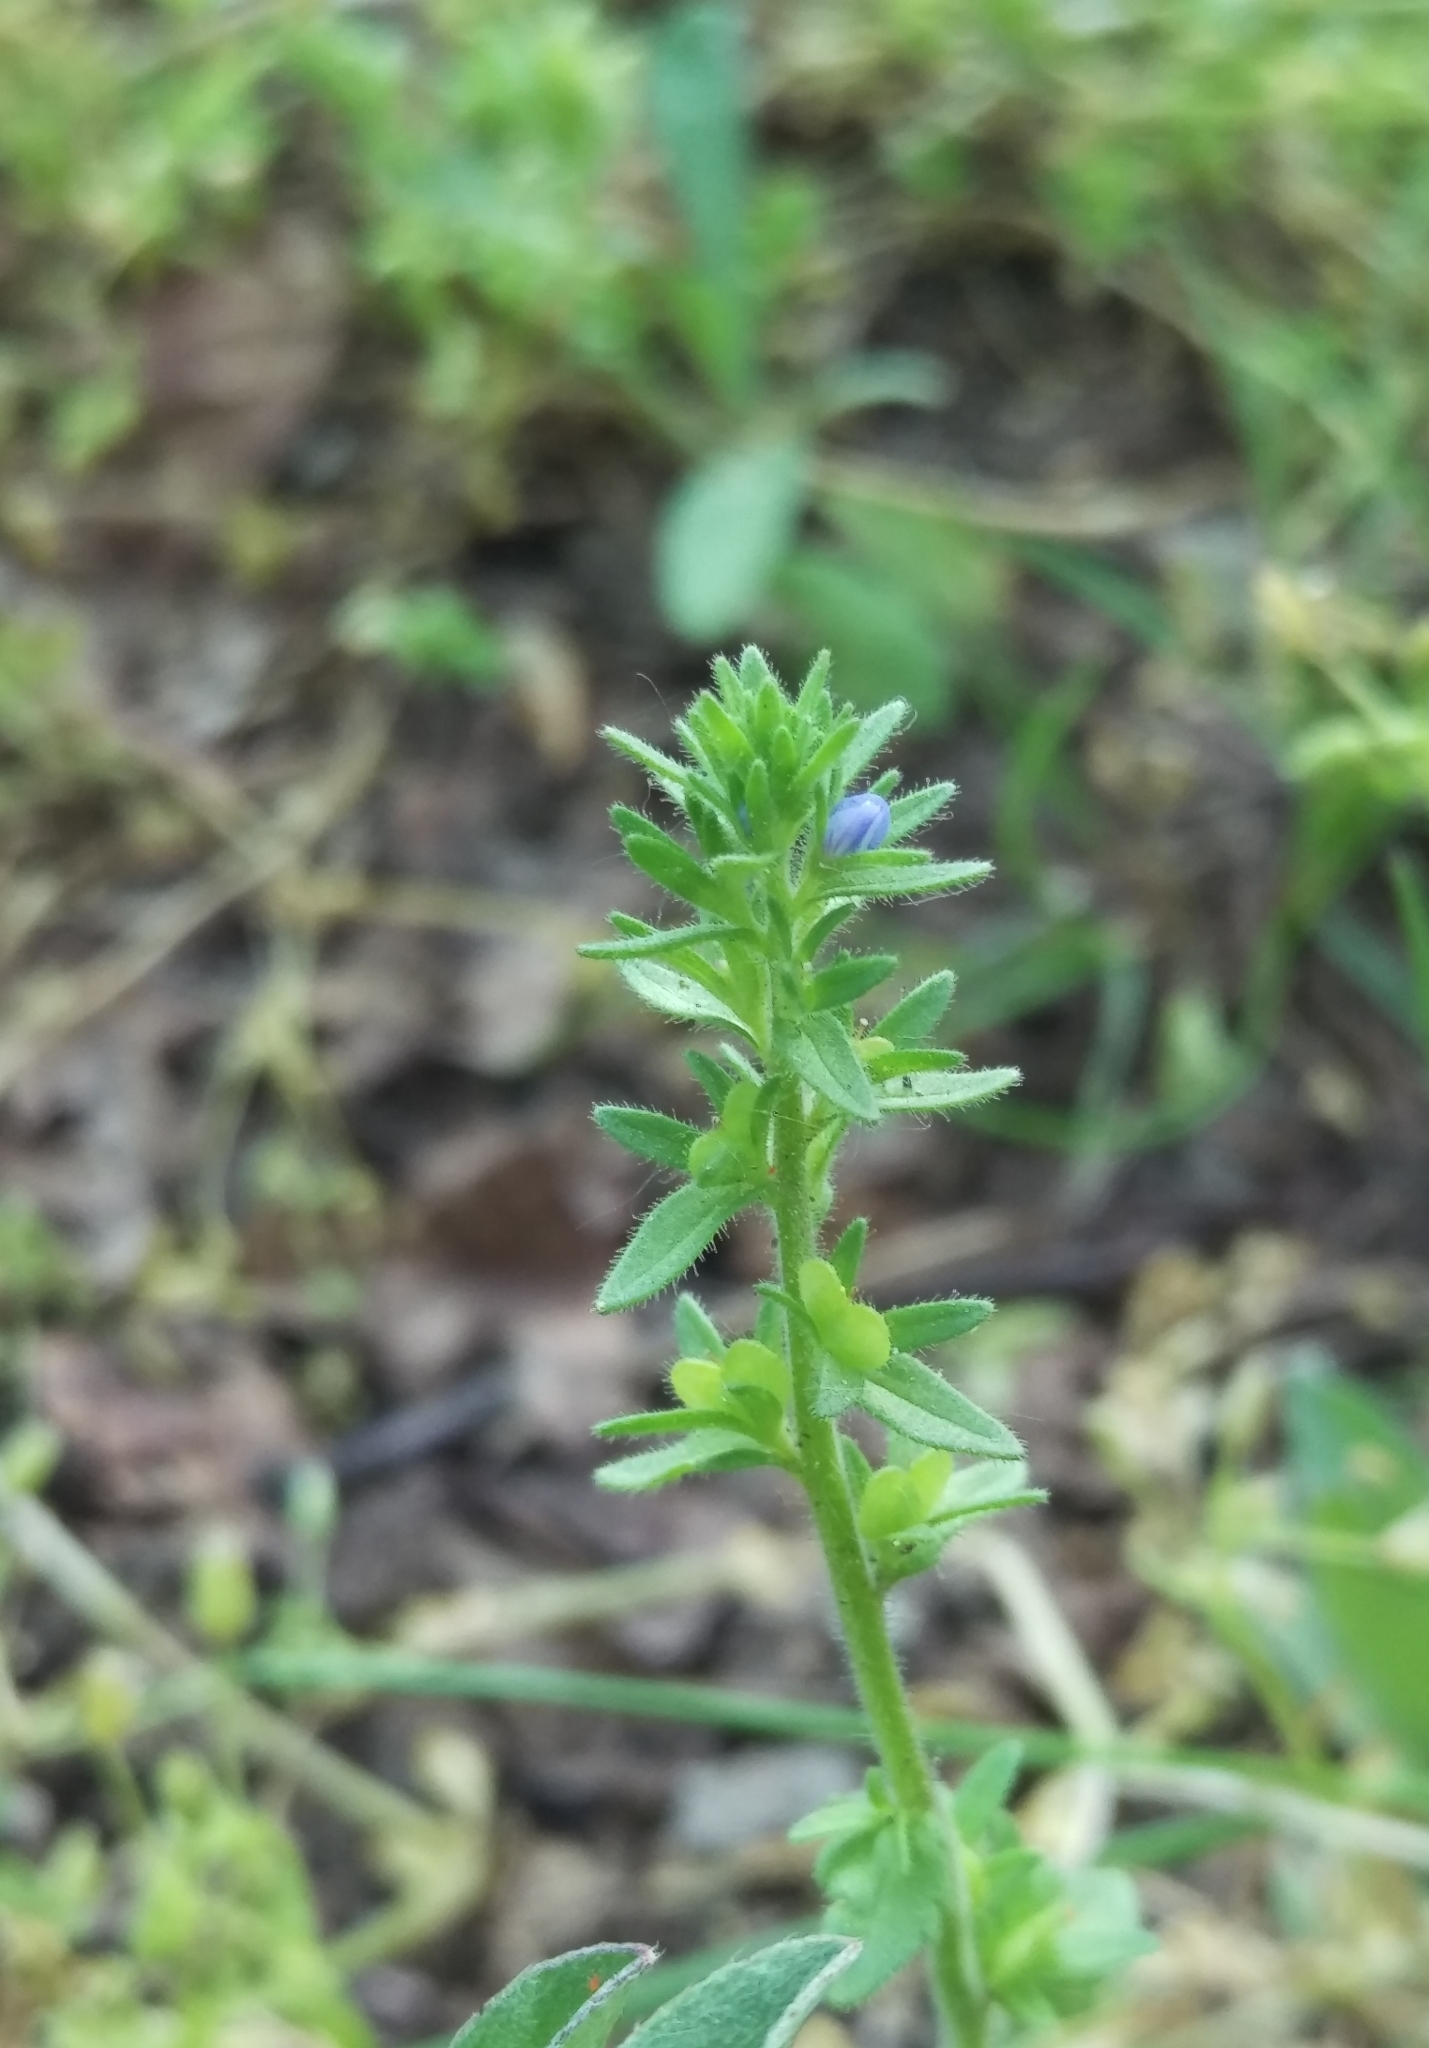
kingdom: Plantae
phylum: Tracheophyta
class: Magnoliopsida
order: Lamiales
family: Plantaginaceae
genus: Veronica
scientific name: Veronica arvensis
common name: Corn speedwell
